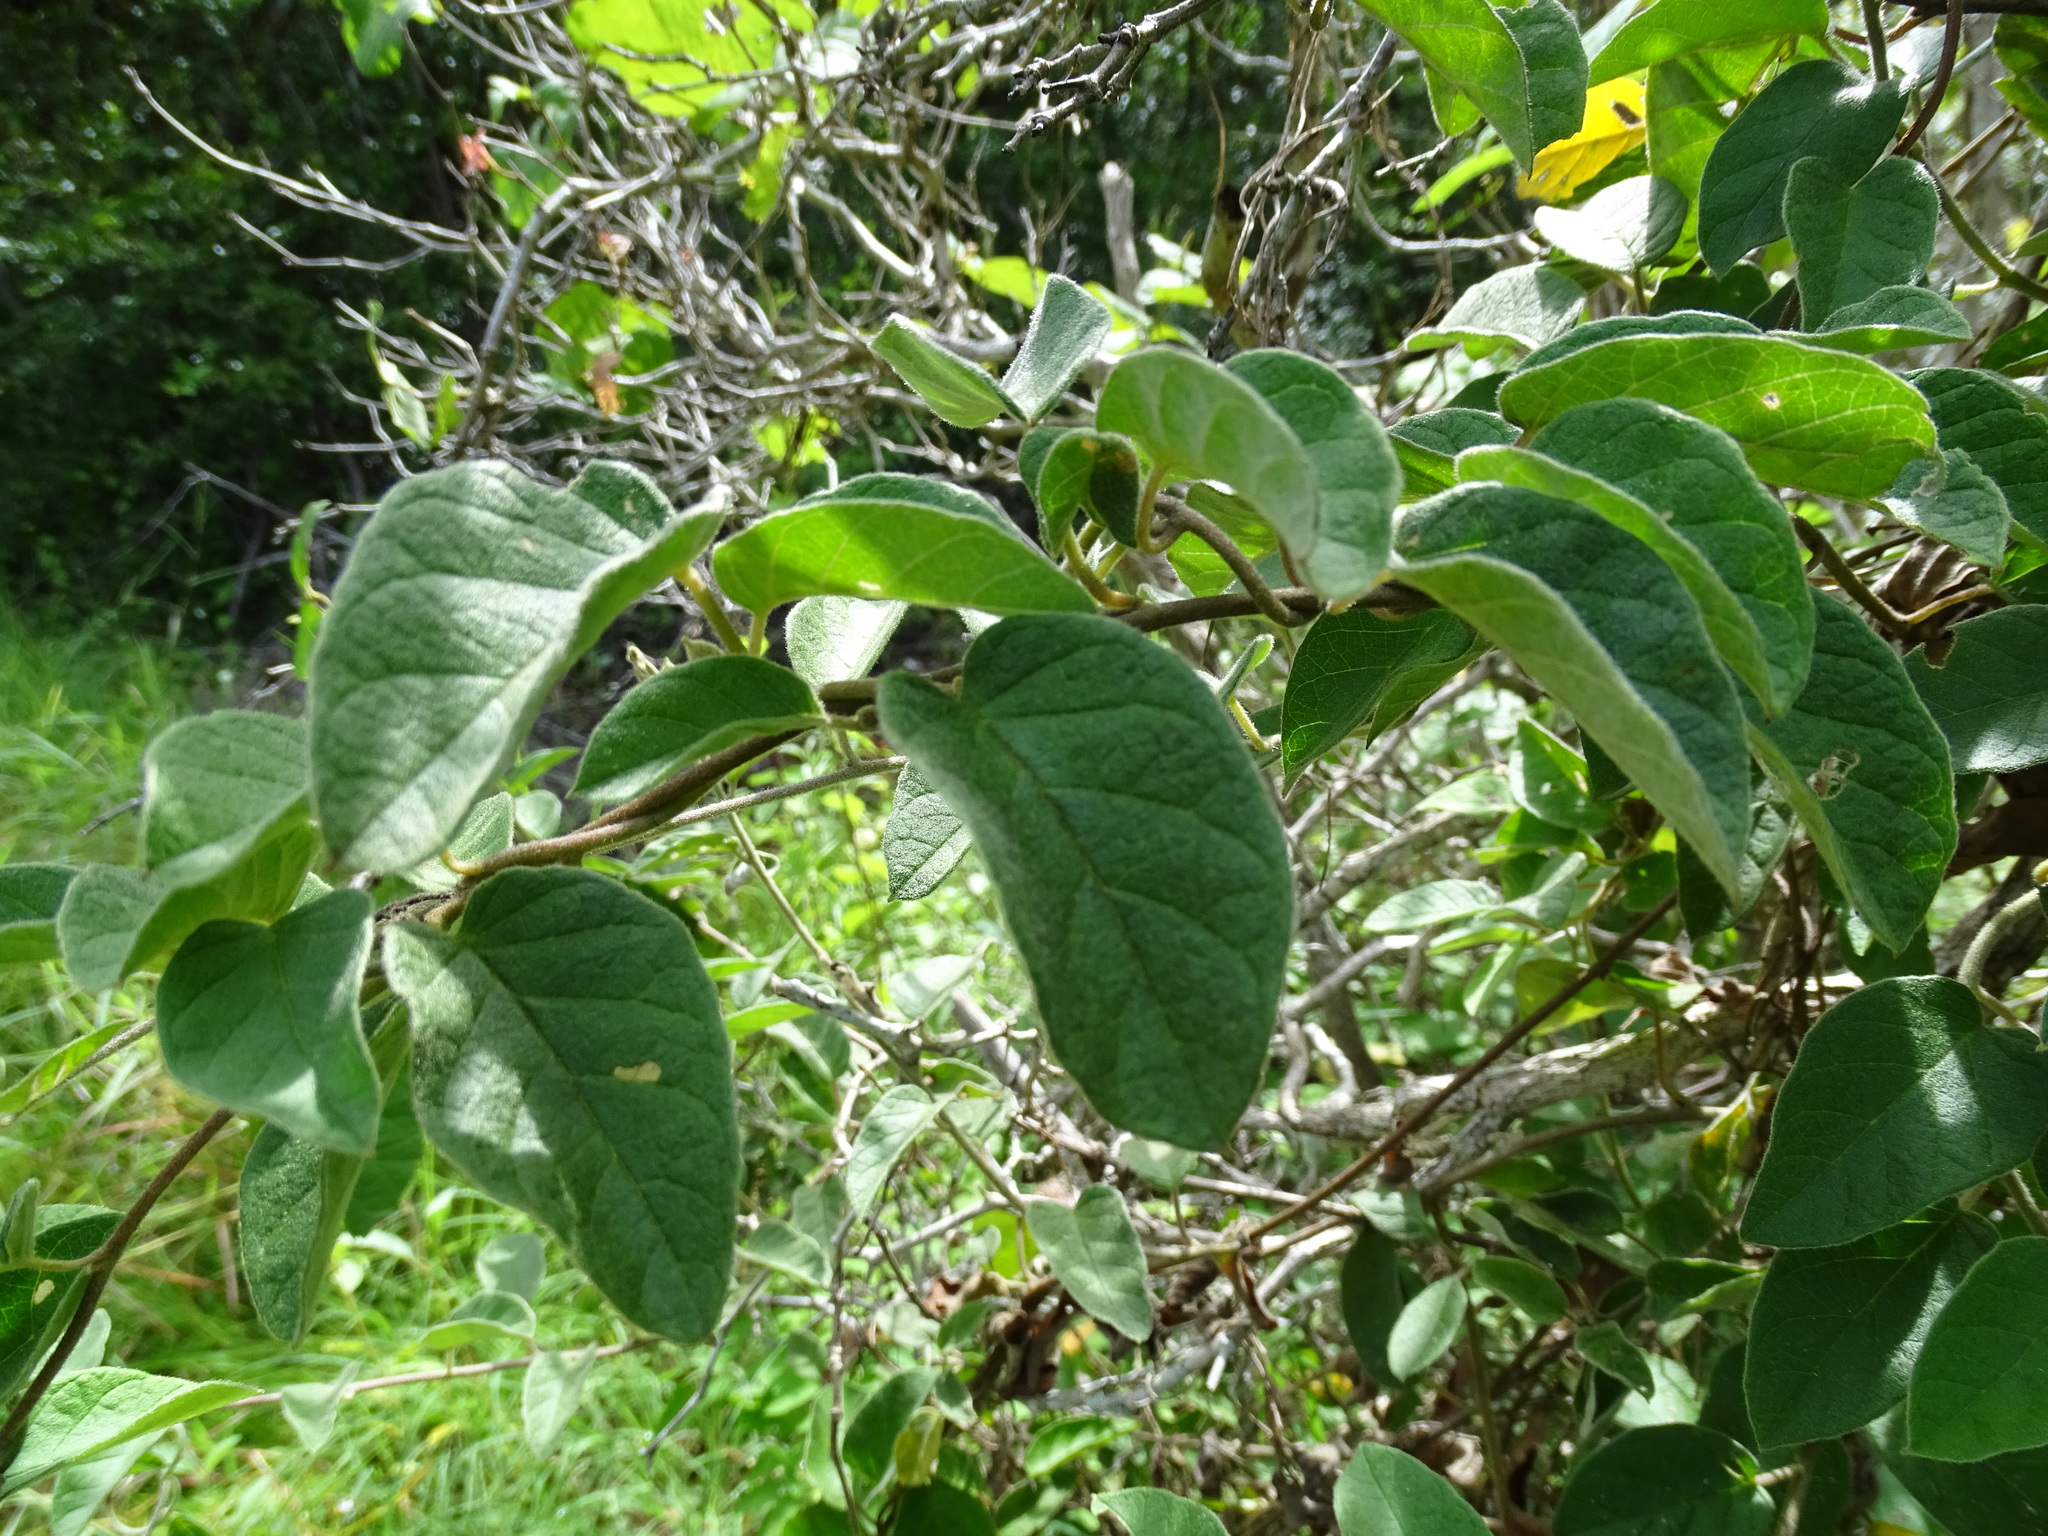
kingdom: Plantae
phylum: Tracheophyta
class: Magnoliopsida
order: Solanales
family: Convolvulaceae
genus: Jacquemontia
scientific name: Jacquemontia pentanthos
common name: Skyblue clustervine
